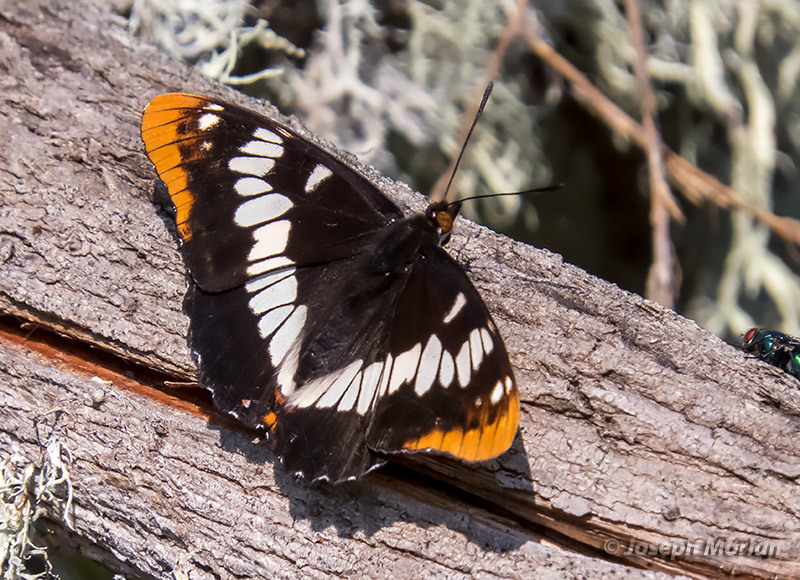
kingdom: Animalia
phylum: Arthropoda
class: Insecta
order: Lepidoptera
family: Nymphalidae
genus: Limenitis
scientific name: Limenitis lorquini
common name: Lorquin's admiral
